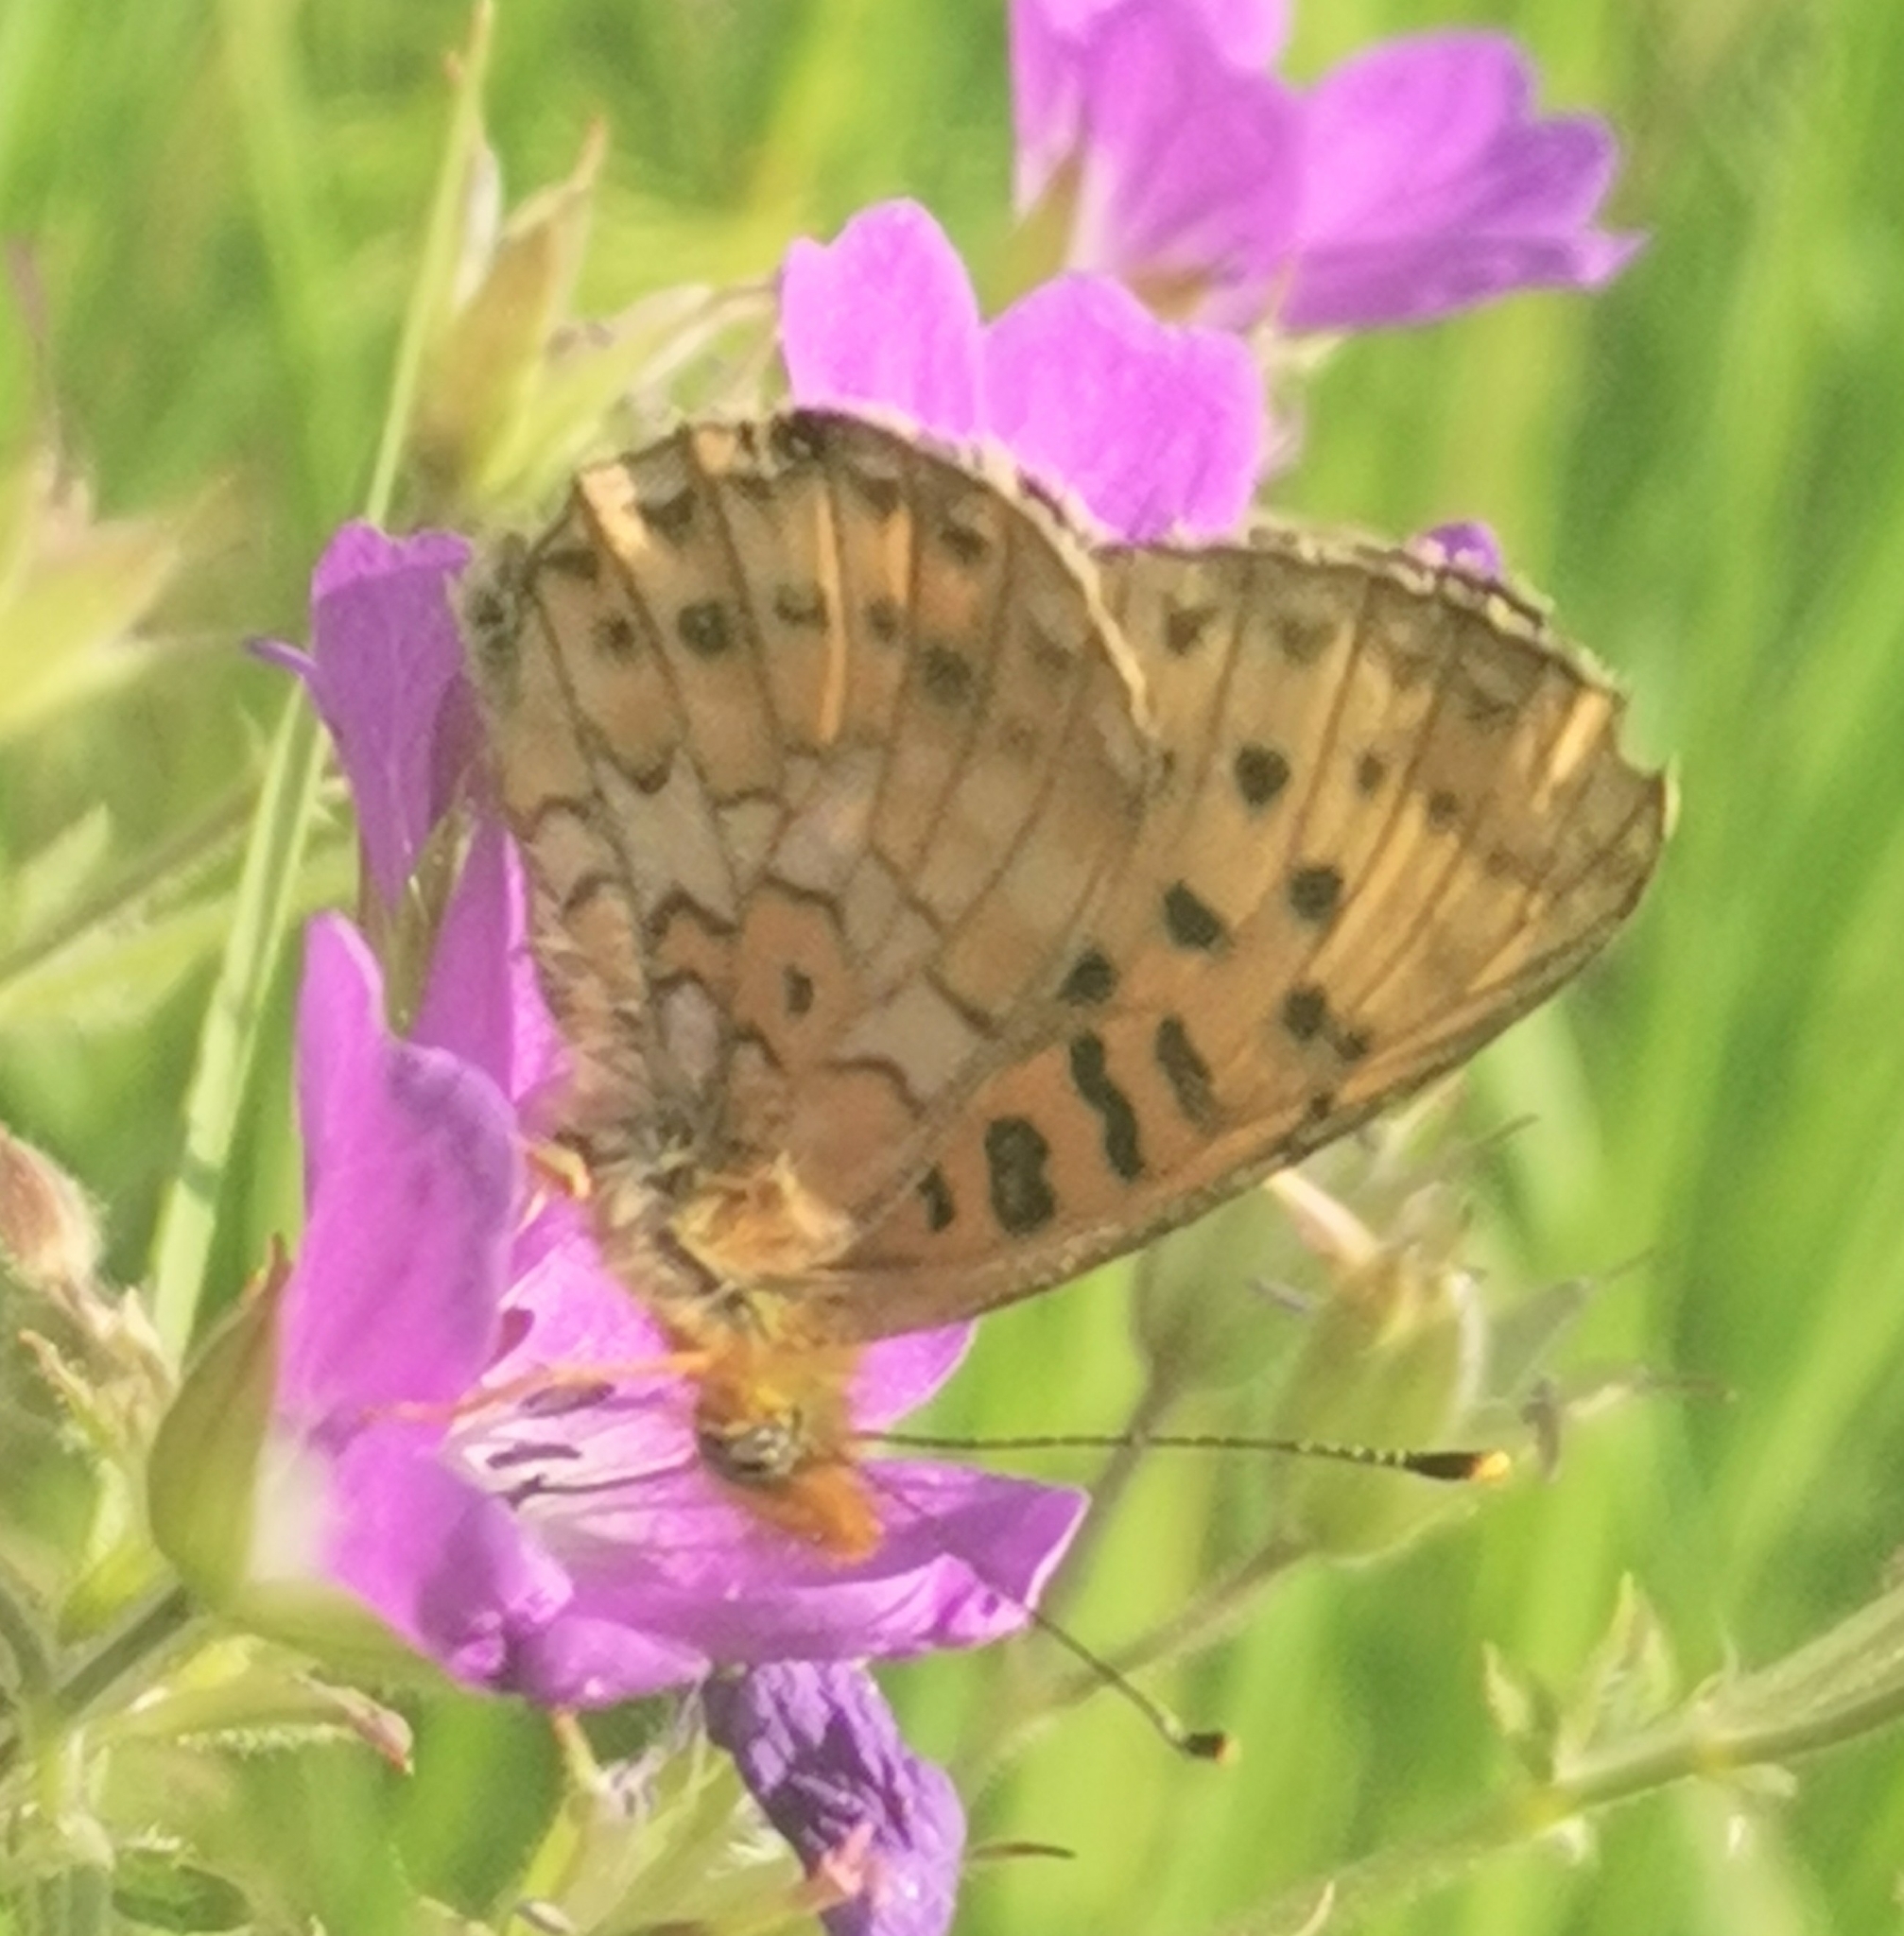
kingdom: Animalia
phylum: Arthropoda
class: Insecta
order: Lepidoptera
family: Nymphalidae
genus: Clossiana
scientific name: Clossiana euphrosyne
